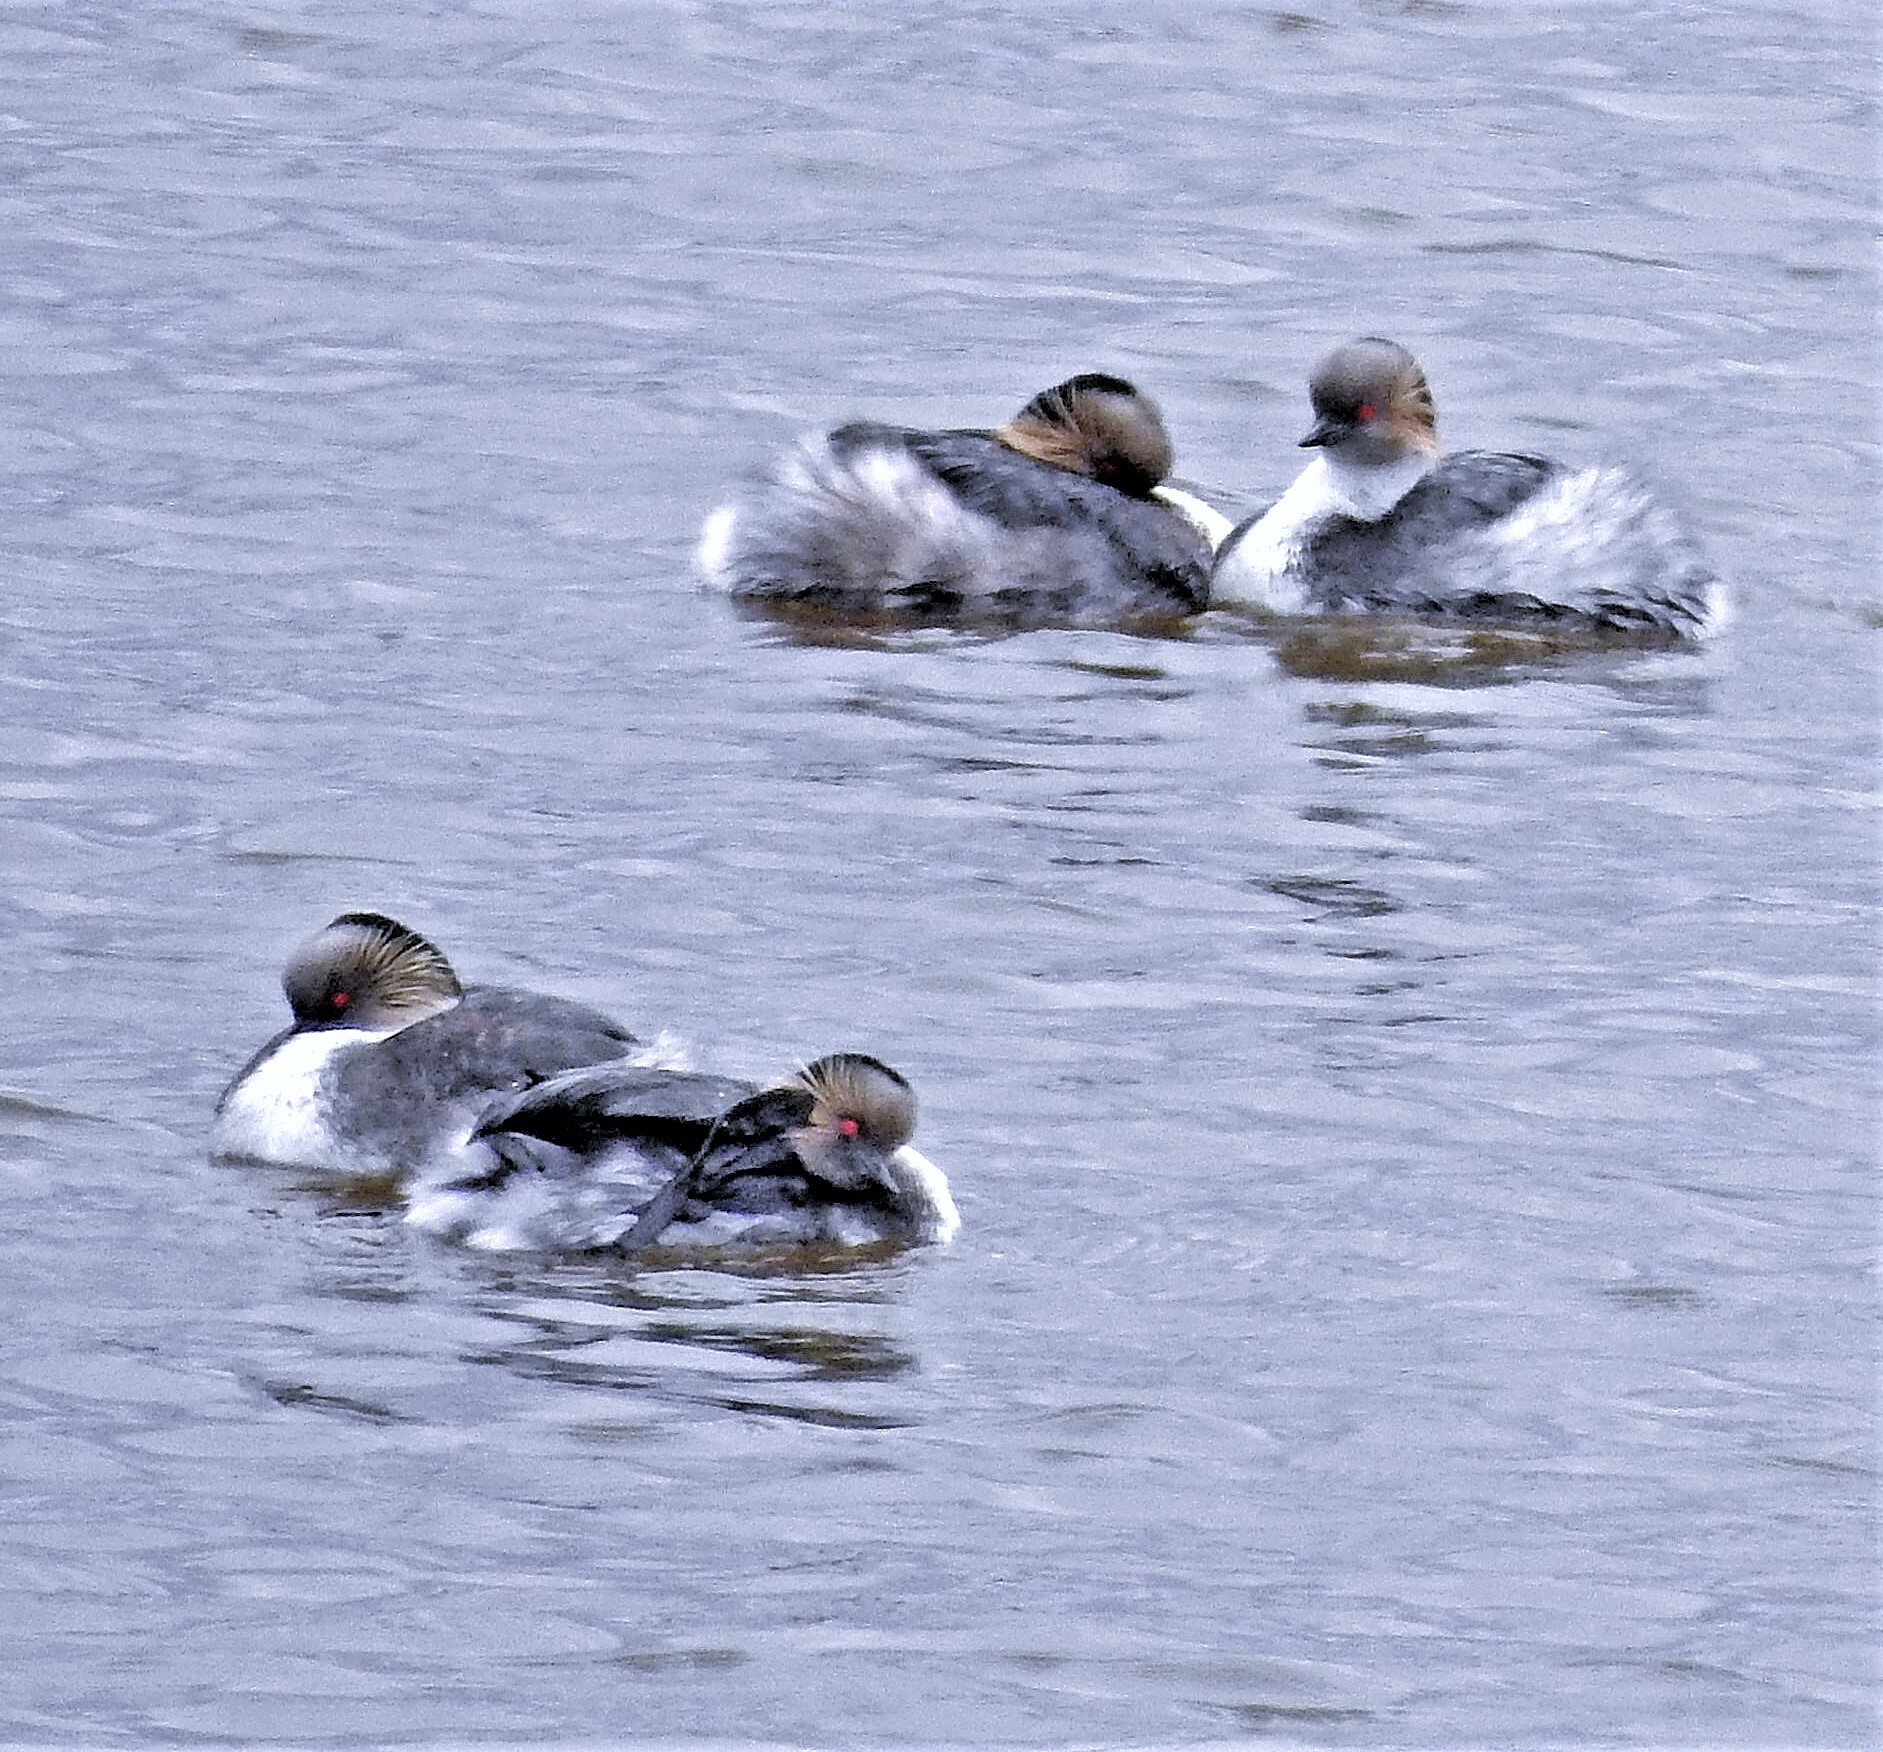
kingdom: Animalia
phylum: Chordata
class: Aves
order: Podicipediformes
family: Podicipedidae
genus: Podiceps
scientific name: Podiceps occipitalis
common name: Silvery grebe
